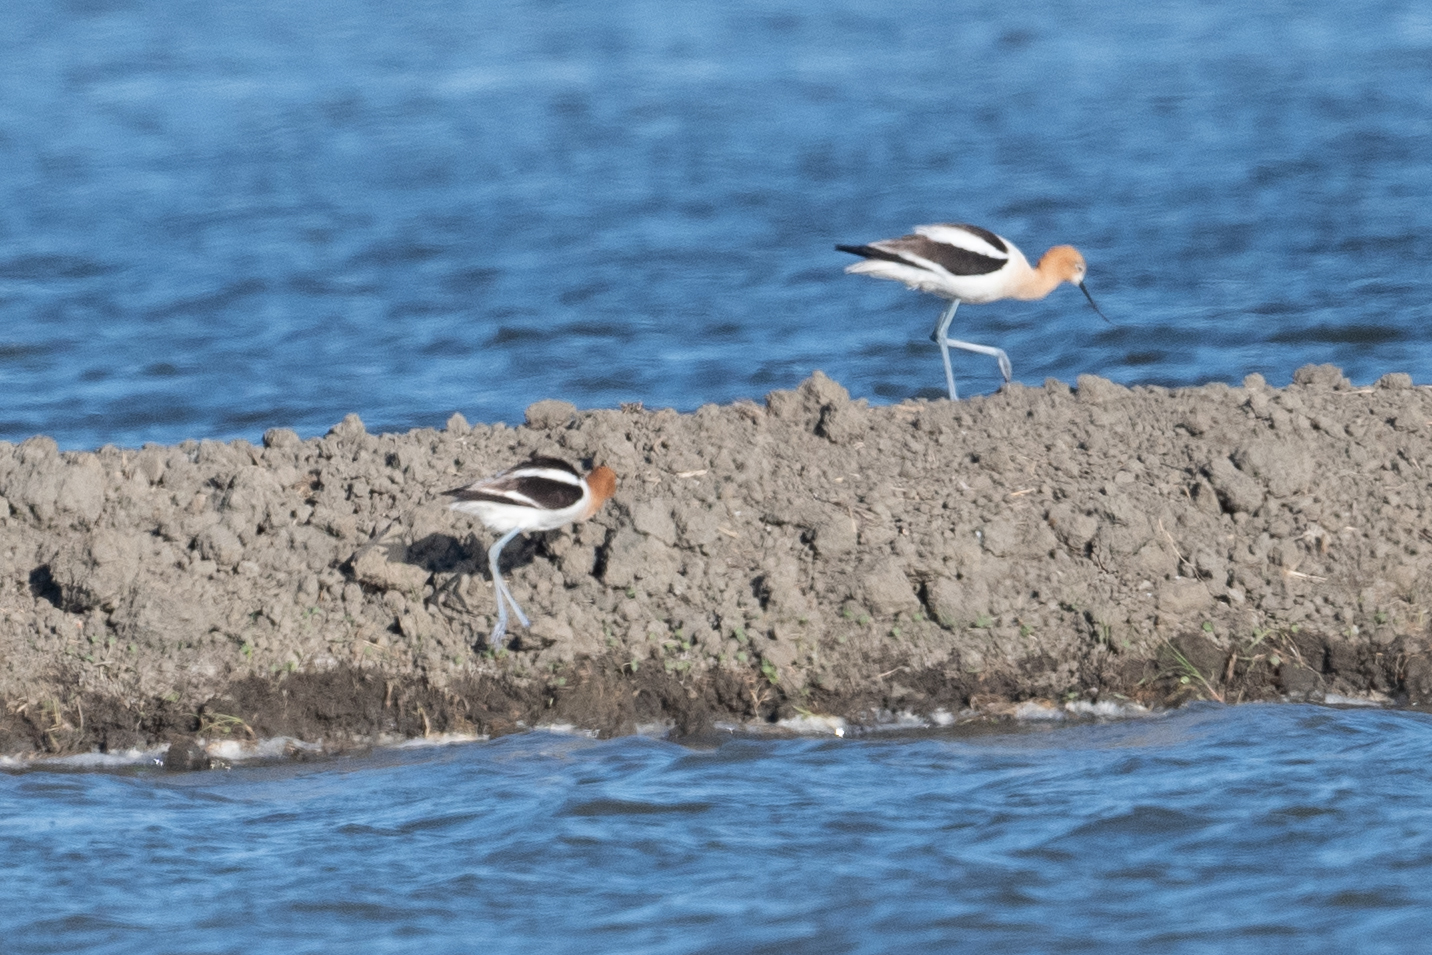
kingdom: Animalia
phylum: Chordata
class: Aves
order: Charadriiformes
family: Recurvirostridae
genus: Recurvirostra
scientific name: Recurvirostra americana
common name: American avocet
